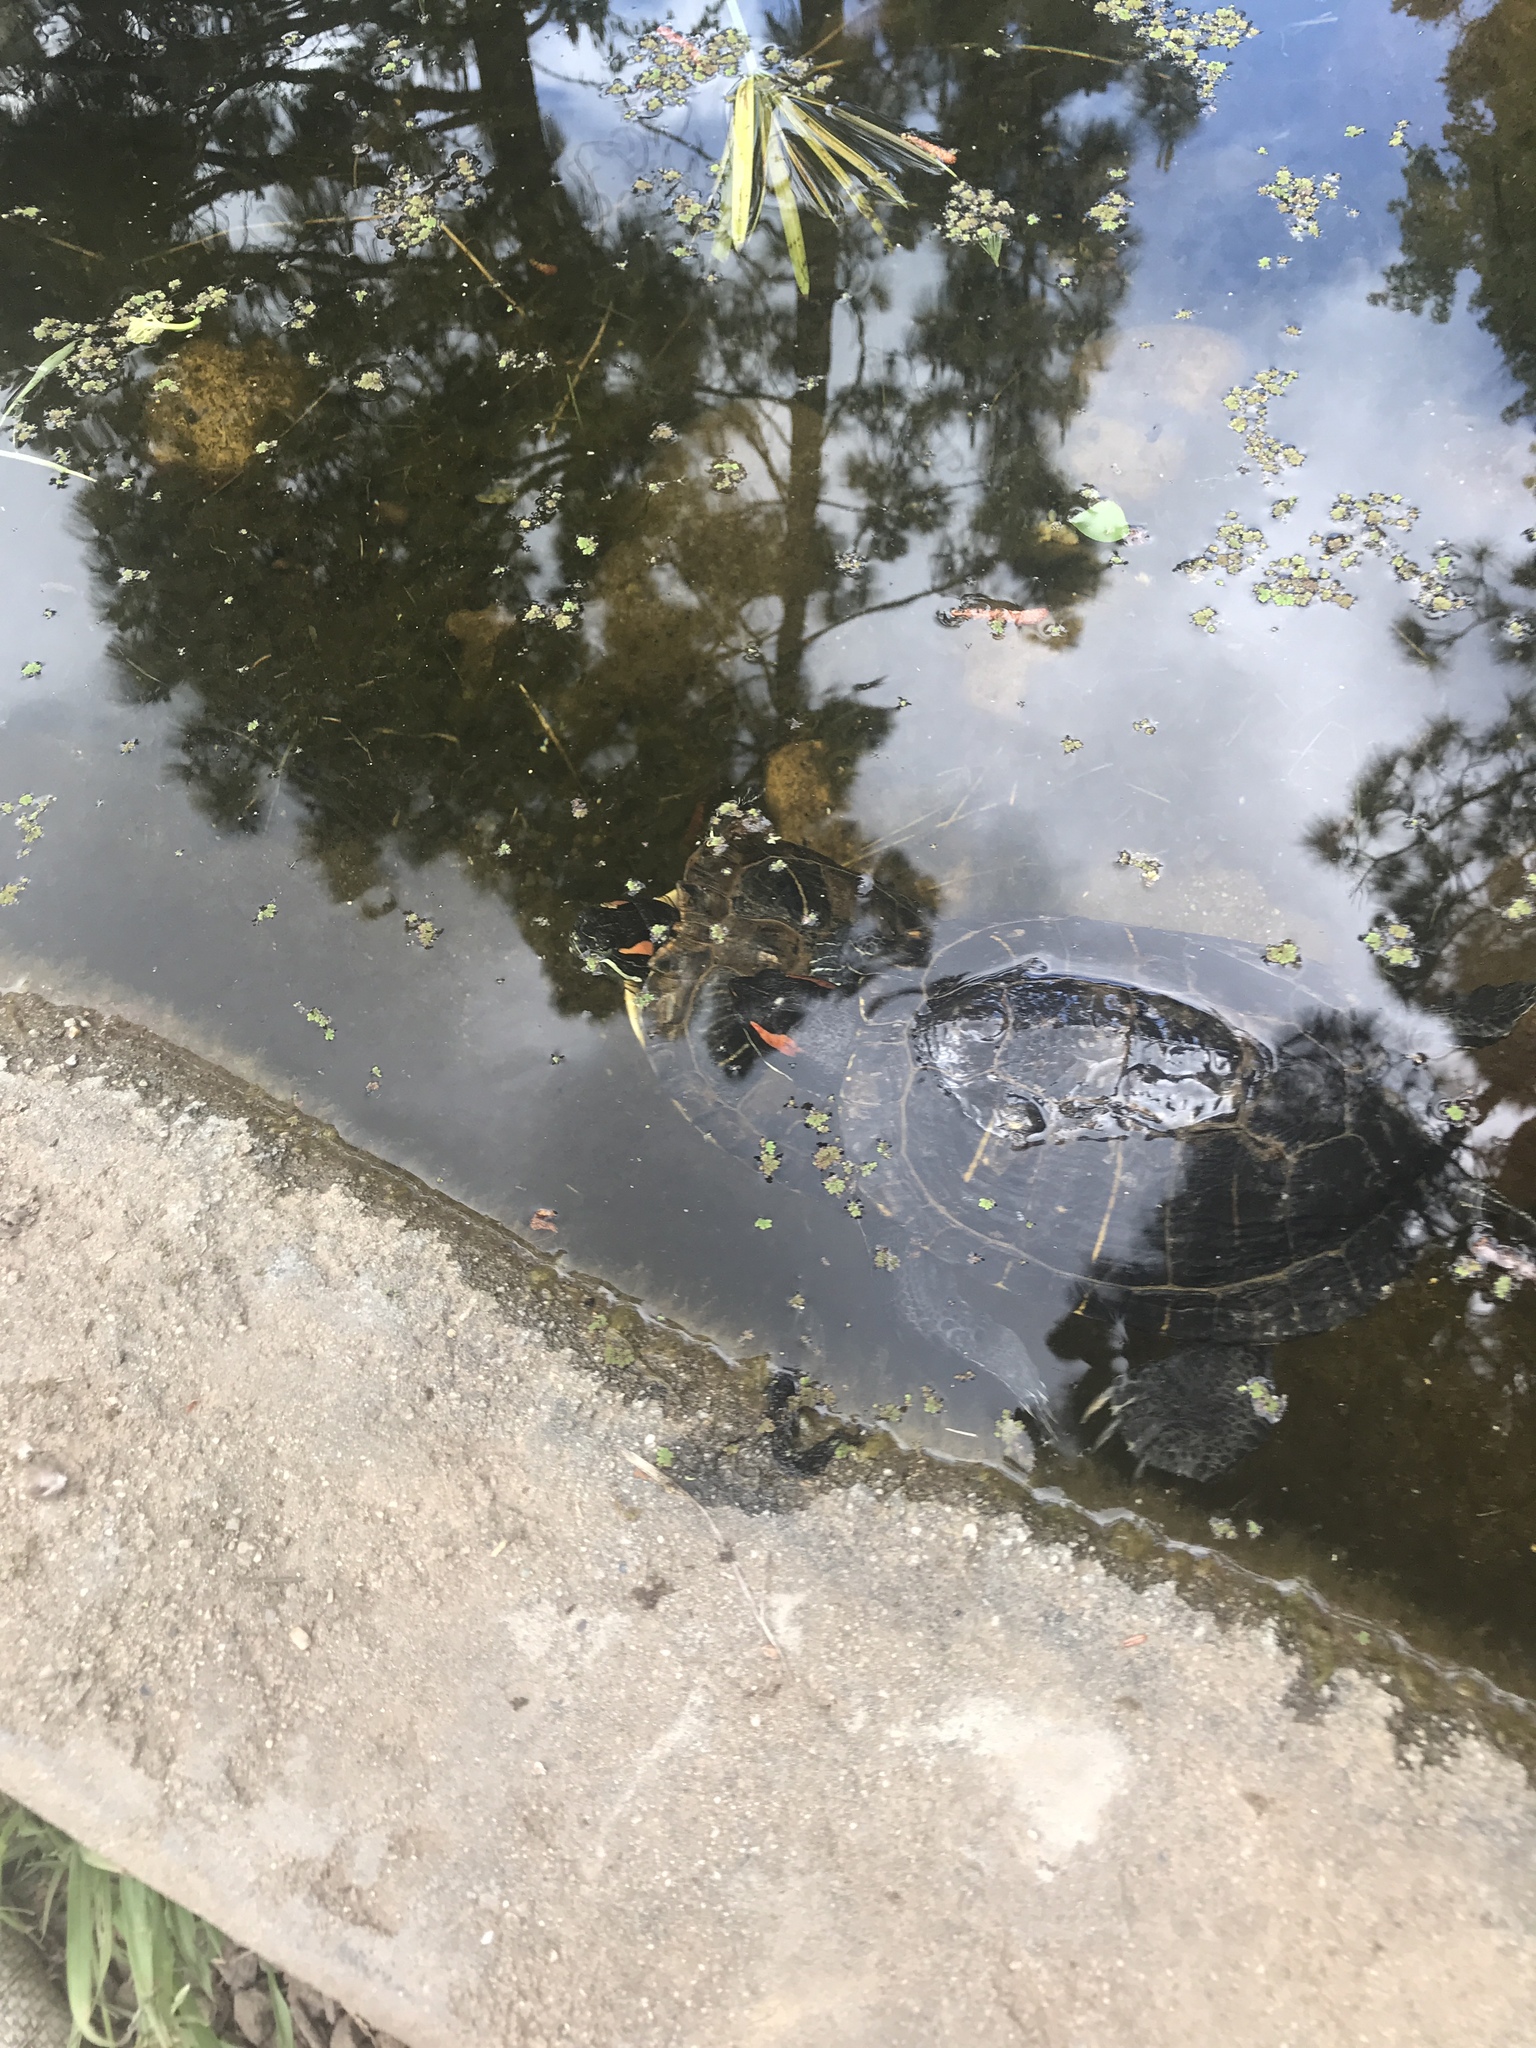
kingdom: Animalia
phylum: Chordata
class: Testudines
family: Emydidae
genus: Trachemys
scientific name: Trachemys scripta
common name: Slider
